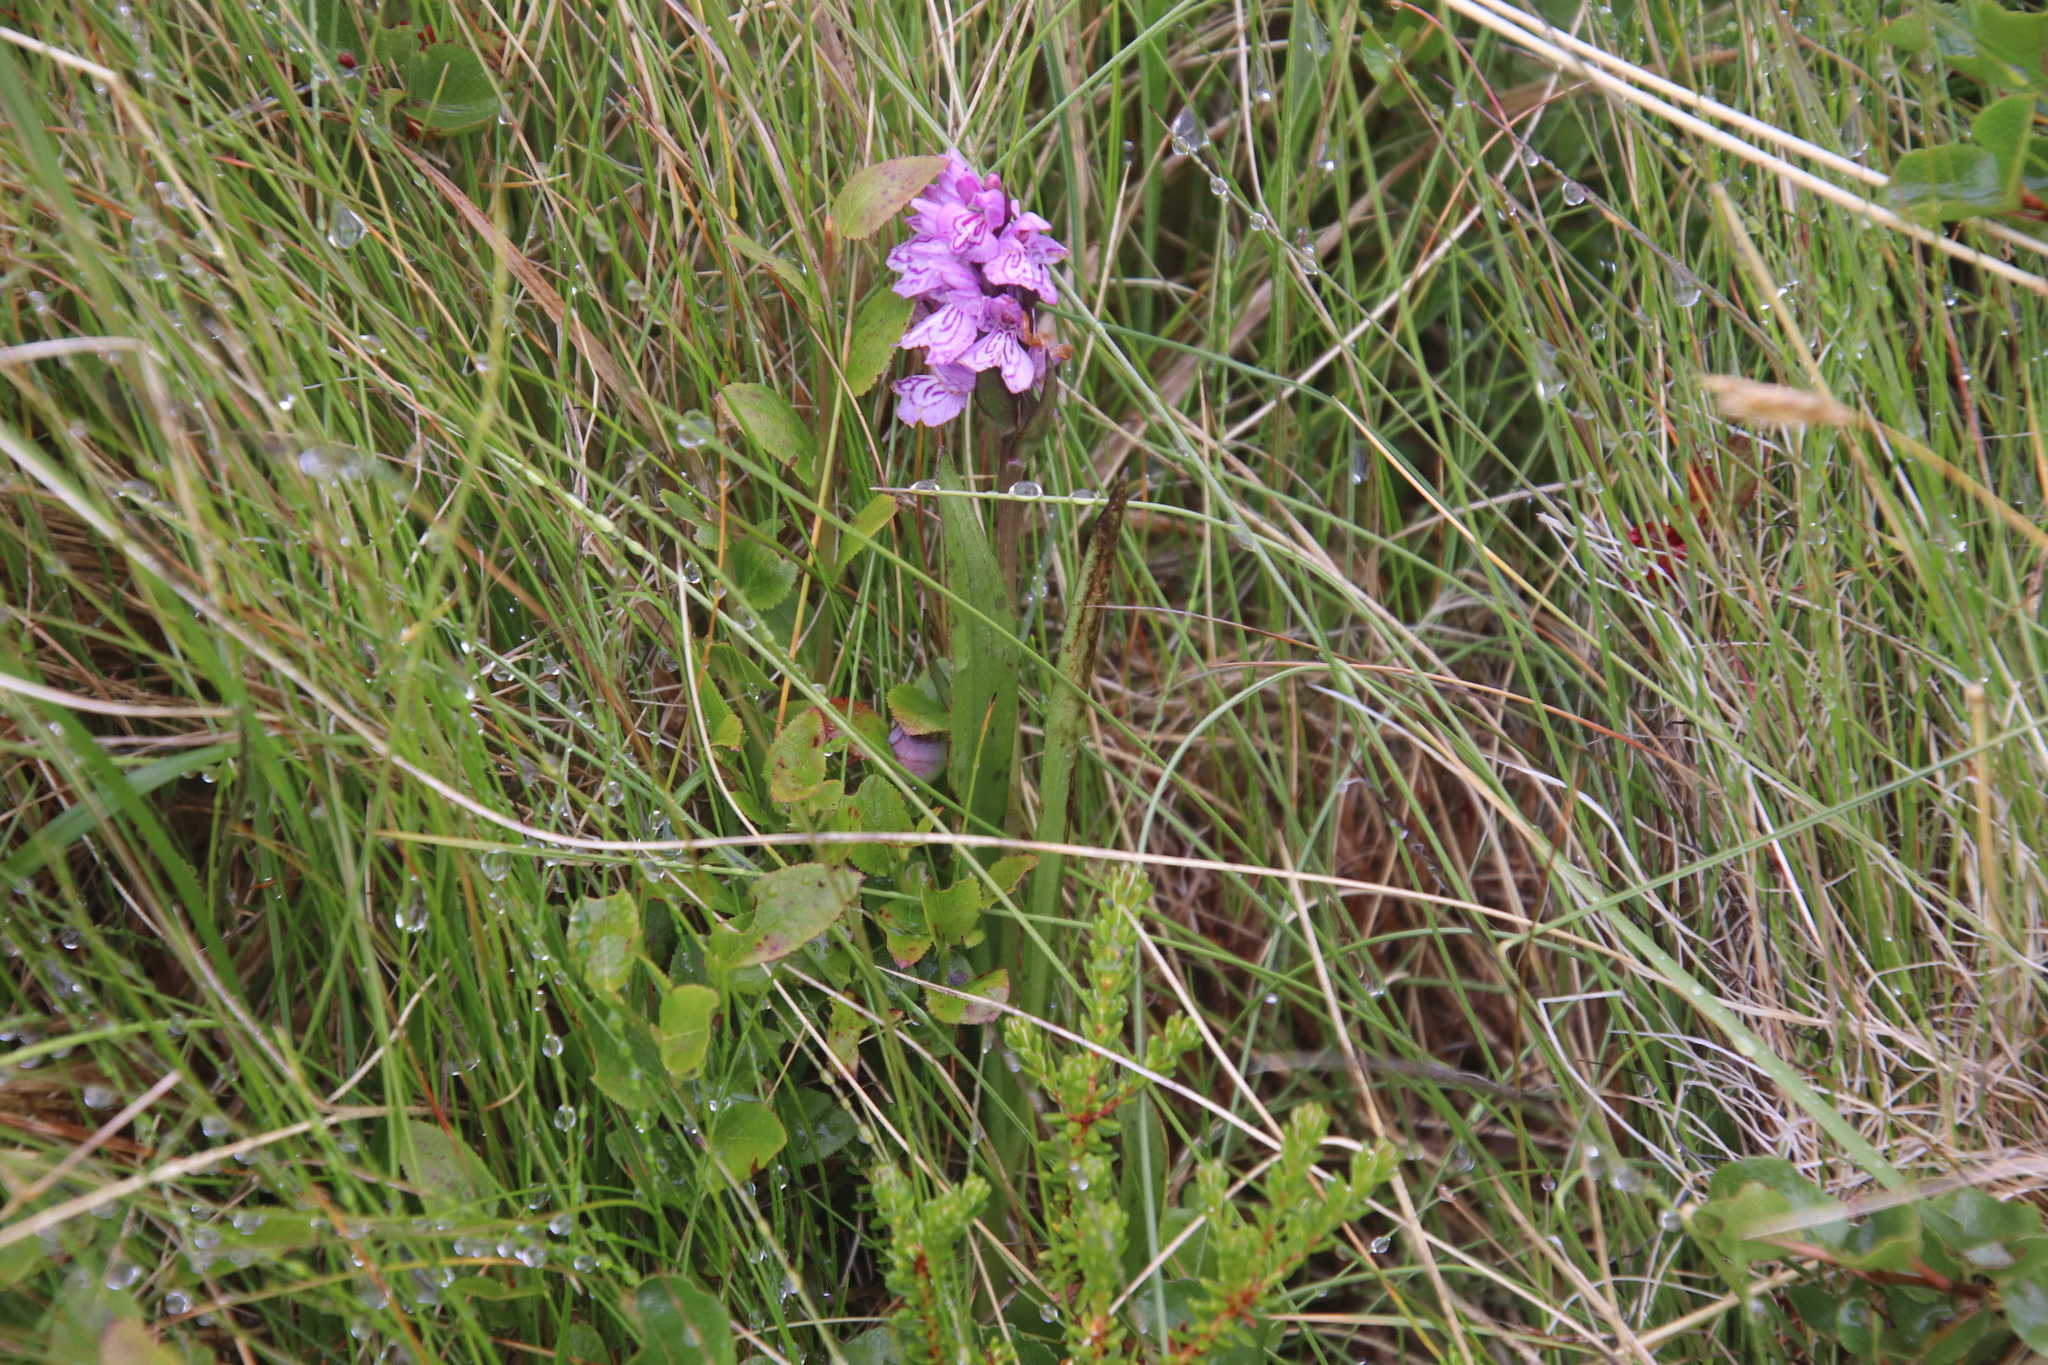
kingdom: Plantae
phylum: Tracheophyta
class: Liliopsida
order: Asparagales
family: Orchidaceae
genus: Dactylorhiza
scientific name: Dactylorhiza maculata
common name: Heath spotted-orchid
